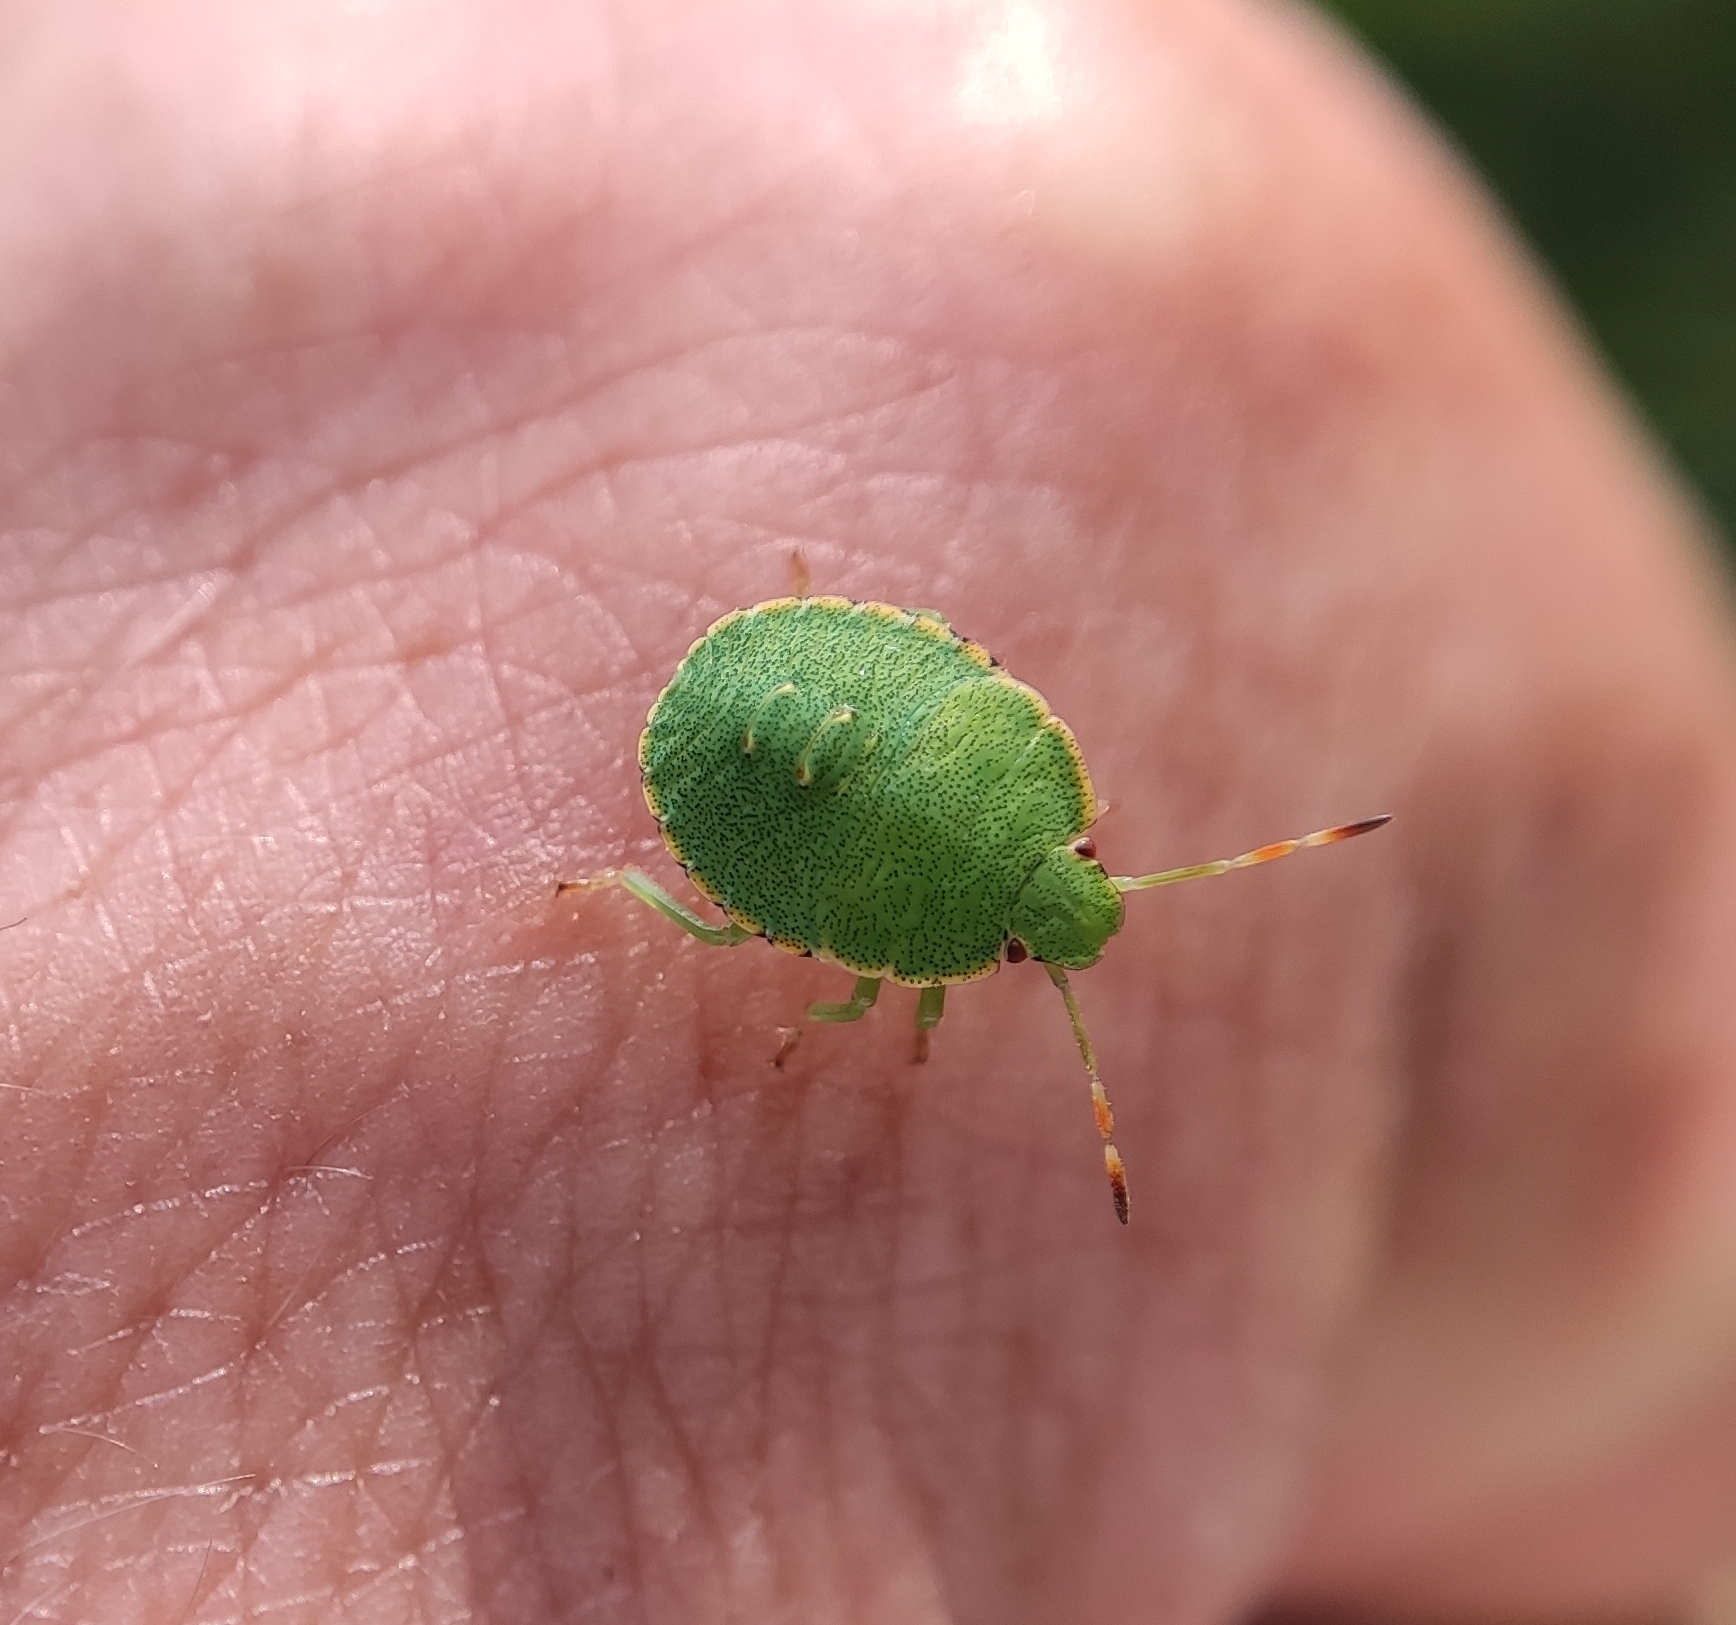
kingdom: Animalia
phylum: Arthropoda
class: Insecta
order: Hemiptera
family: Pentatomidae
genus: Palomena
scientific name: Palomena prasina
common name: Green shieldbug
